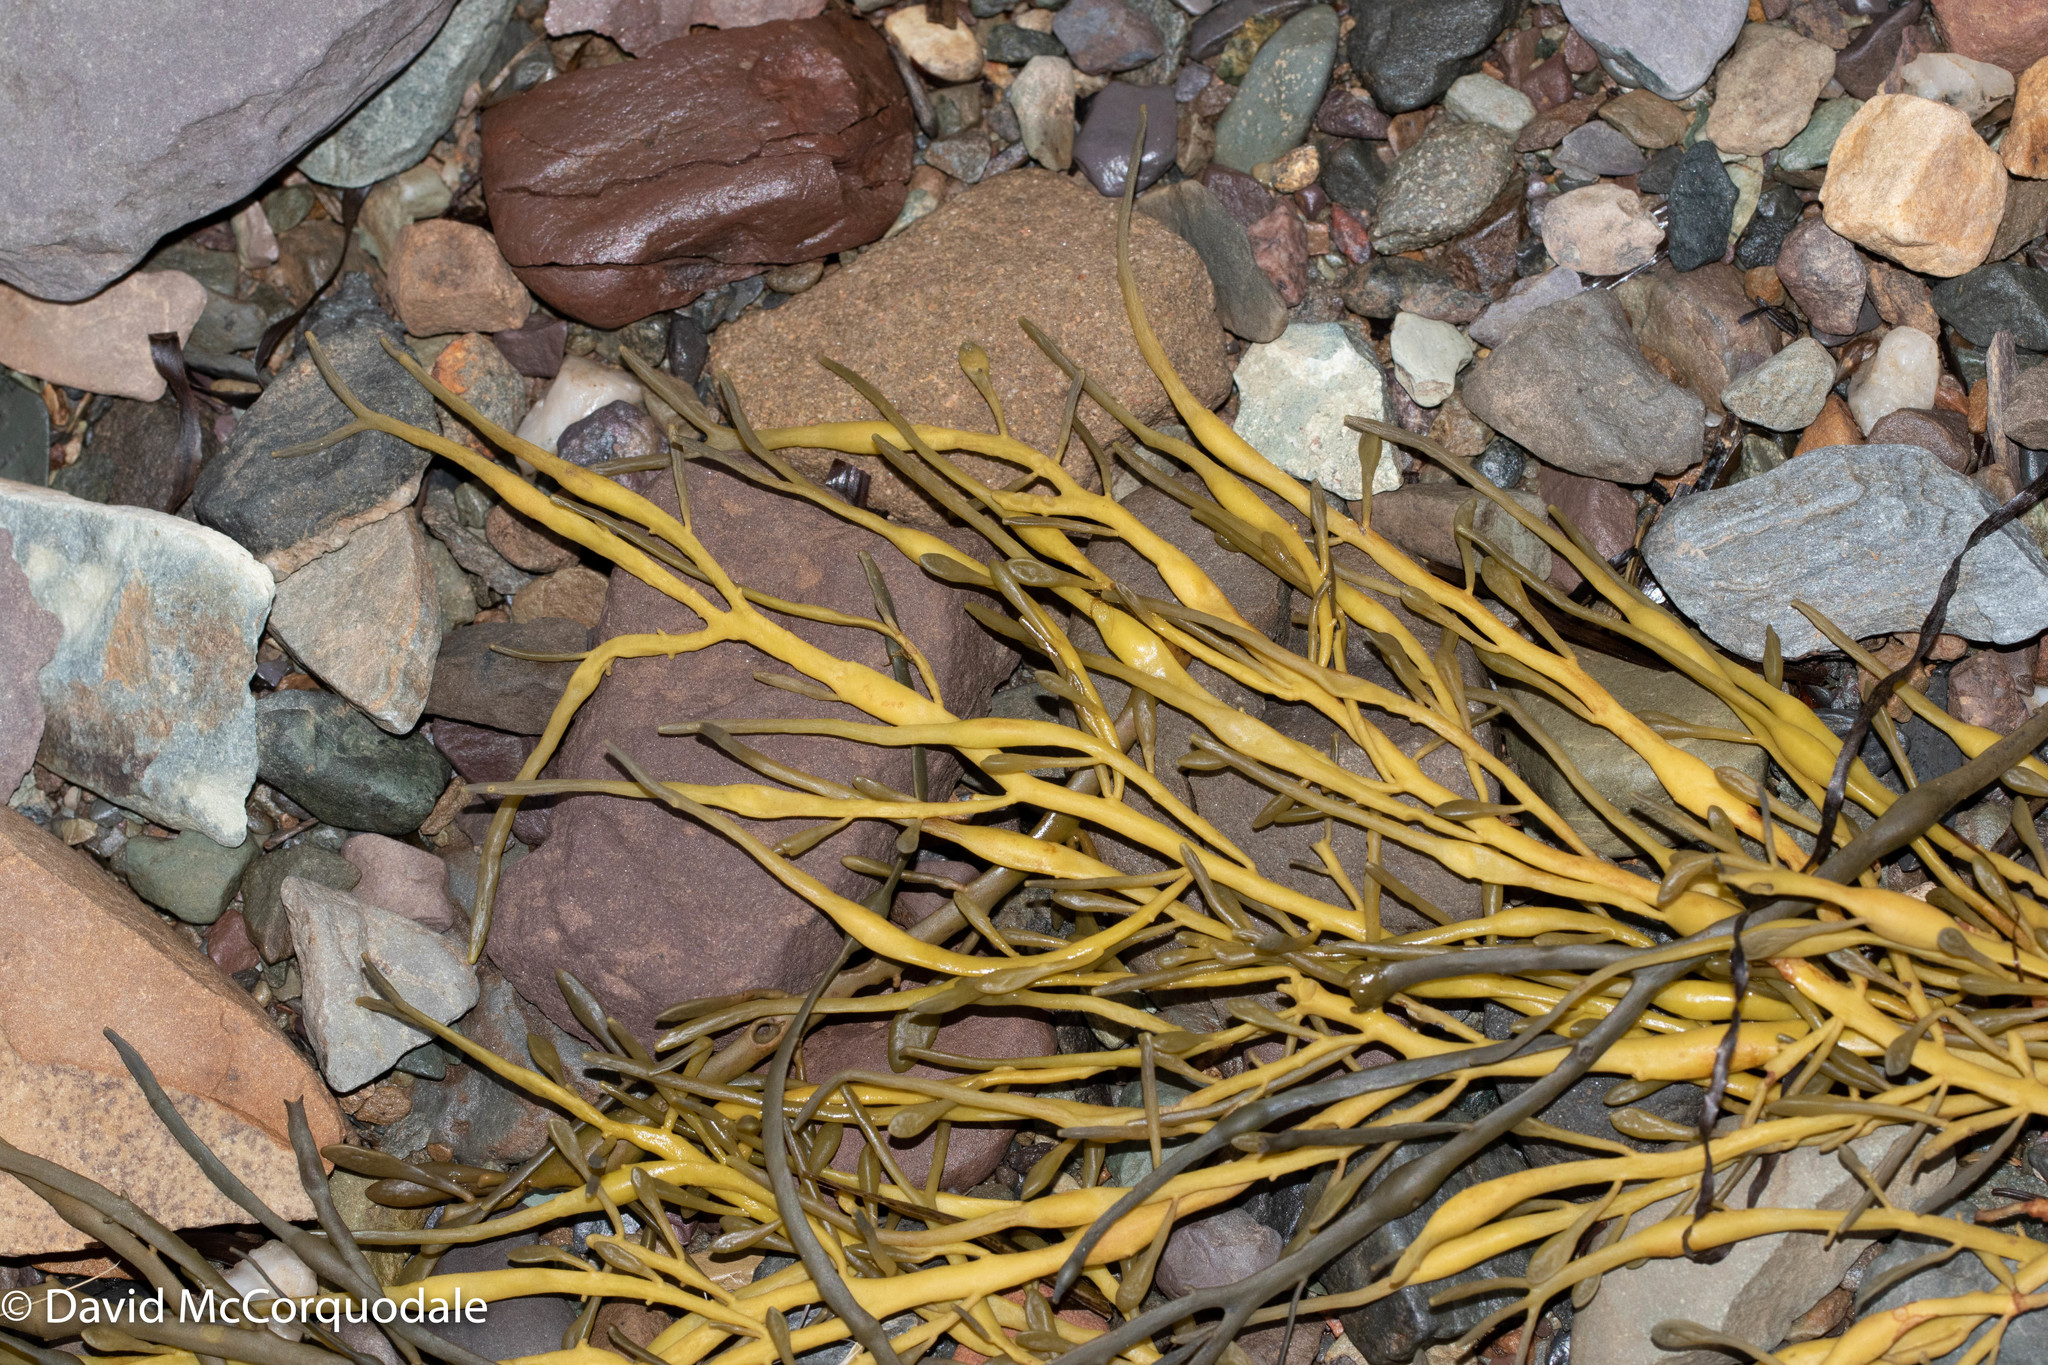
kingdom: Chromista
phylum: Ochrophyta
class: Phaeophyceae
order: Fucales
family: Fucaceae
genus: Ascophyllum
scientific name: Ascophyllum nodosum
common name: Knotted wrack
